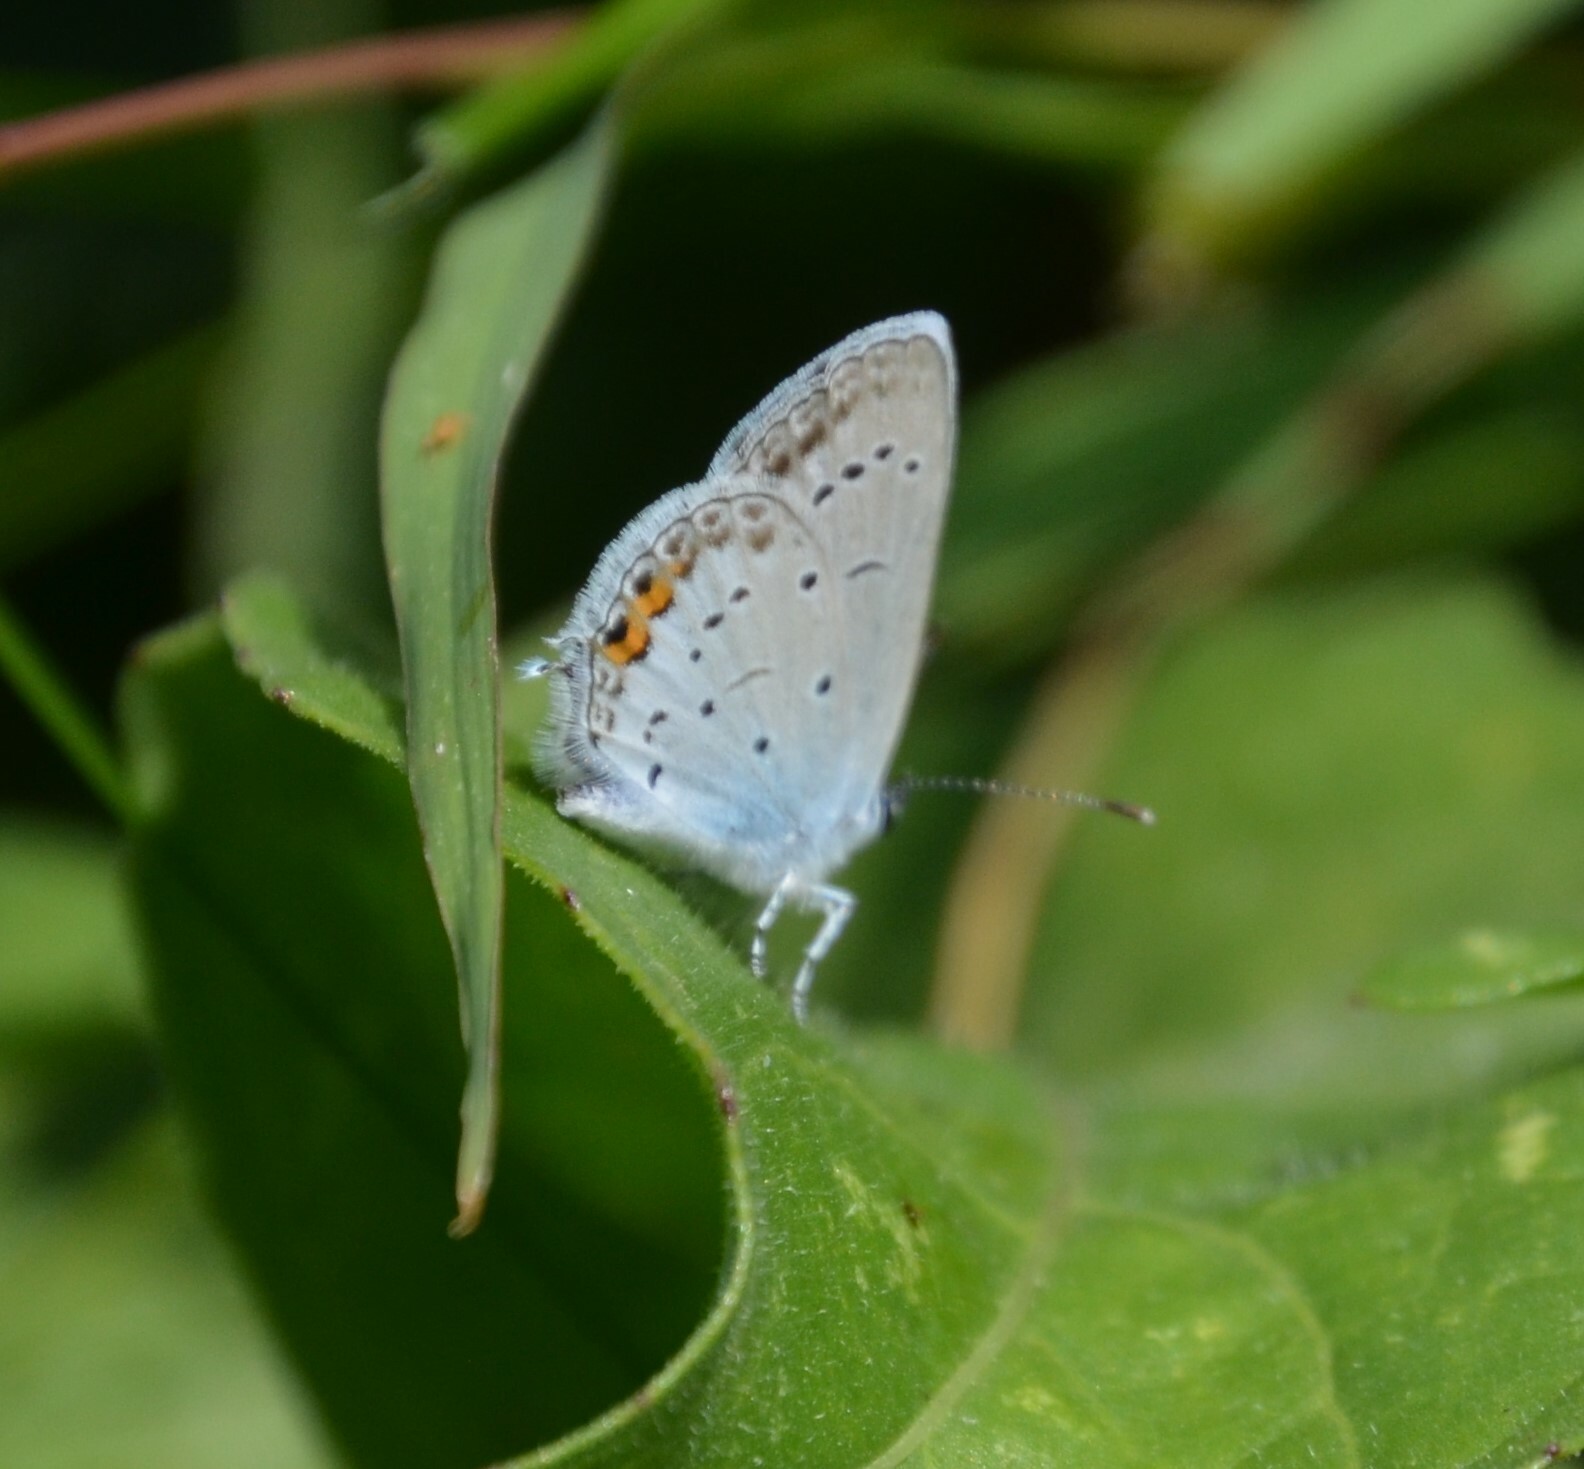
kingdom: Animalia
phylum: Arthropoda
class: Insecta
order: Lepidoptera
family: Lycaenidae
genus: Elkalyce
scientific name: Elkalyce argiades
